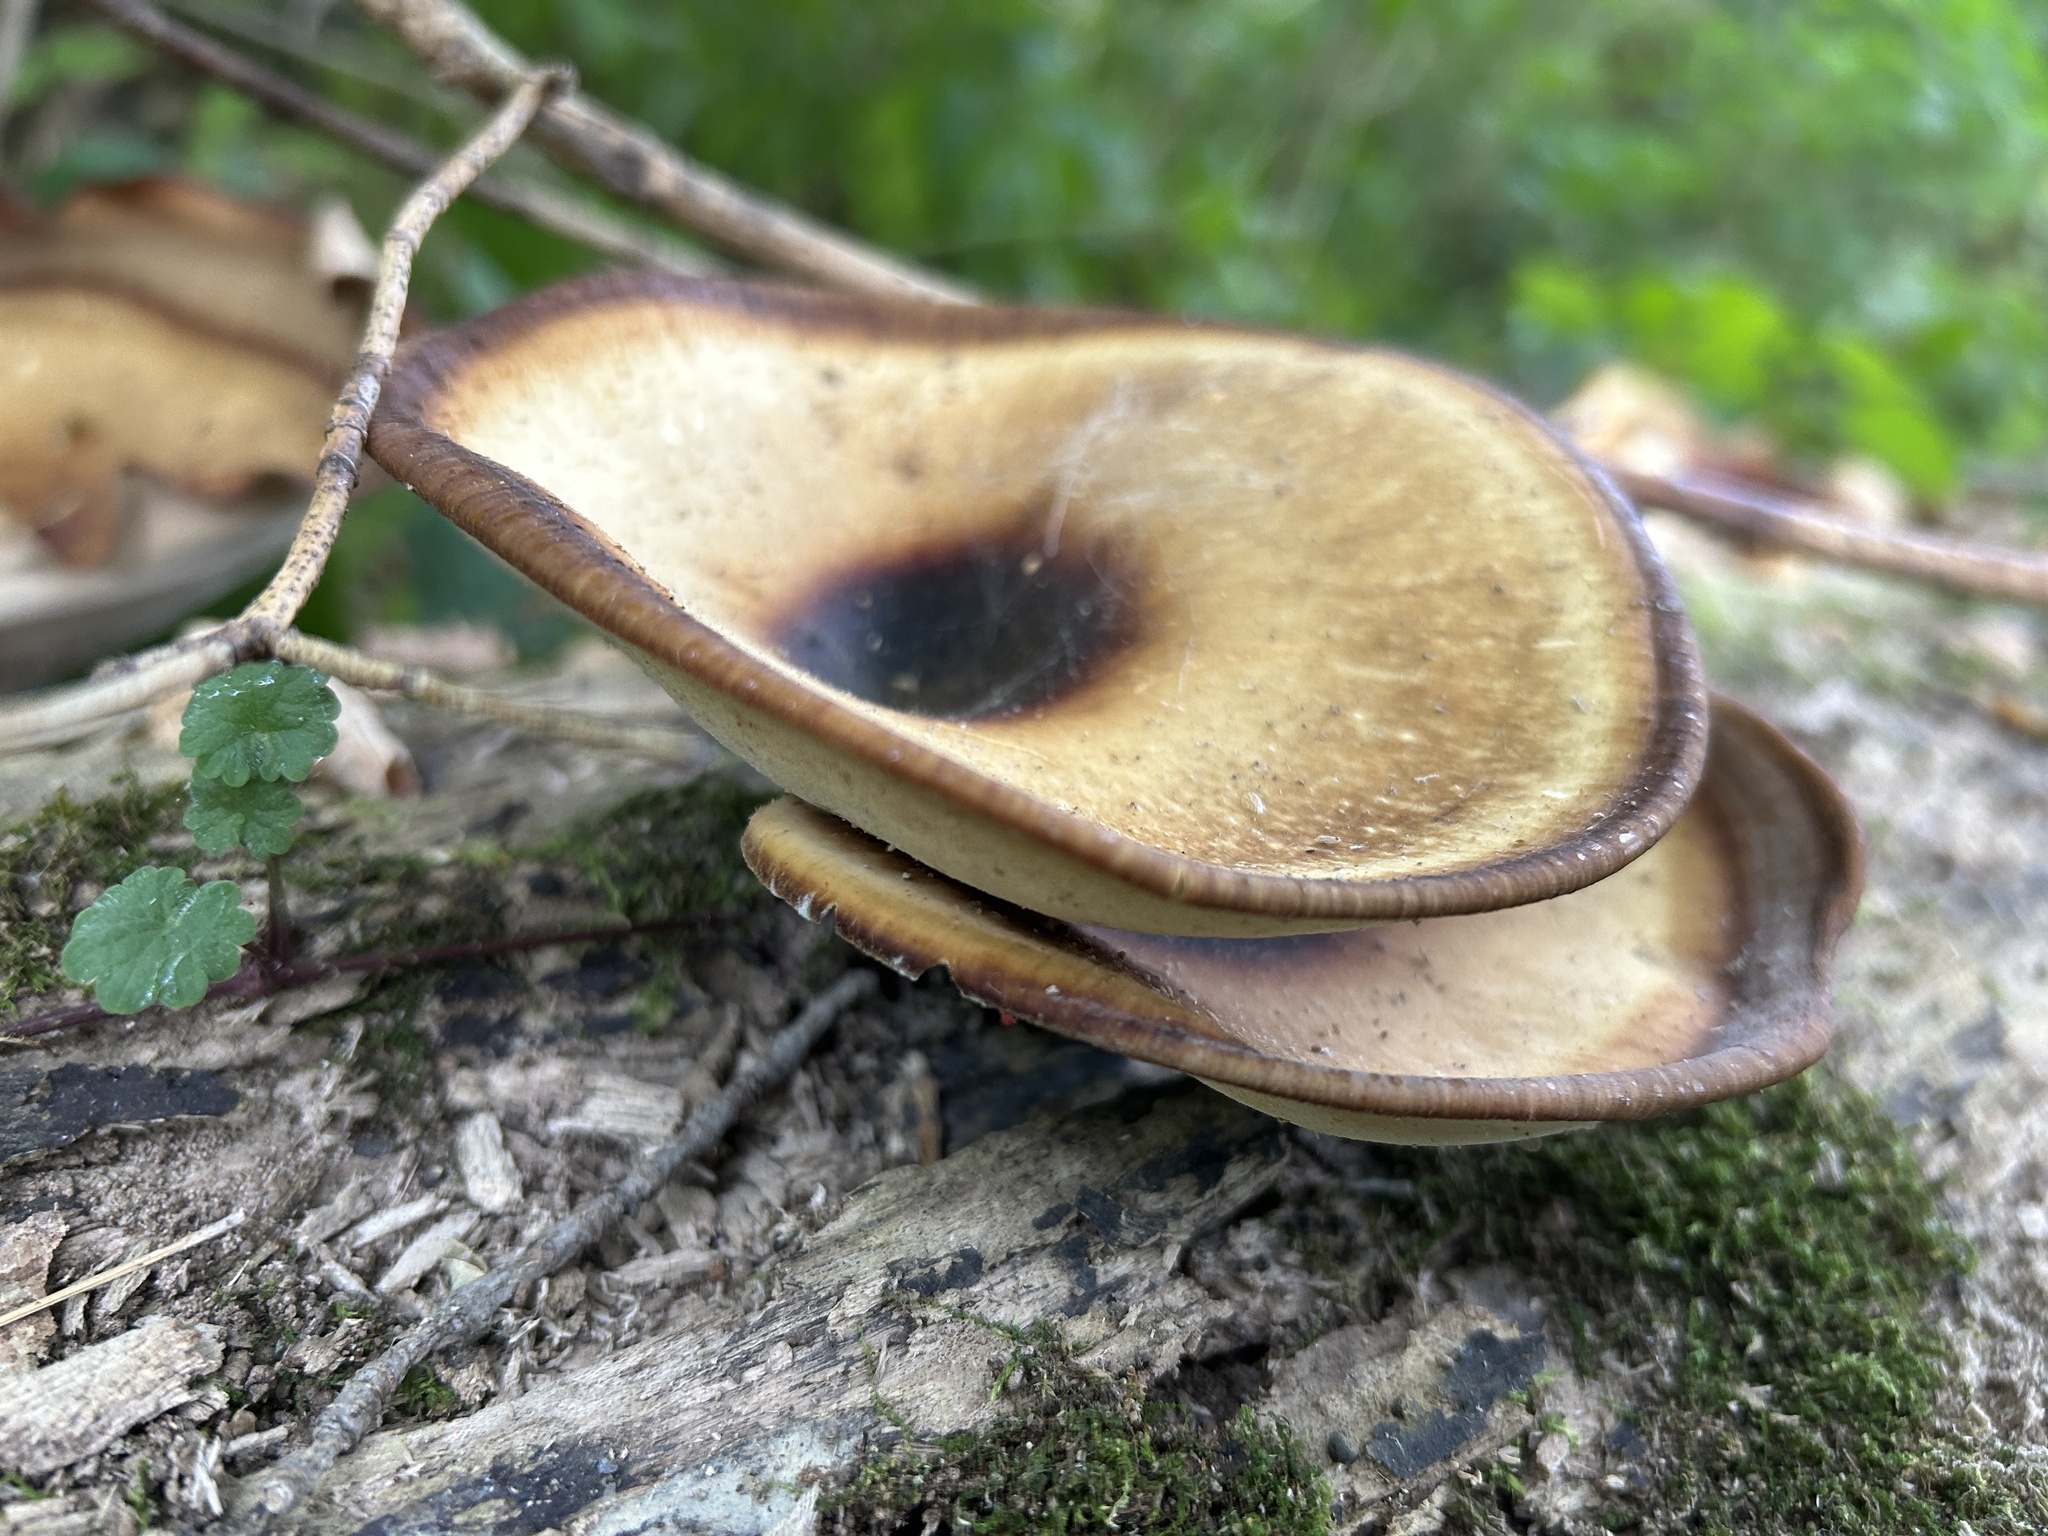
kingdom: Fungi
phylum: Basidiomycota
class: Agaricomycetes
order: Polyporales
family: Polyporaceae
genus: Picipes
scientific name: Picipes badius
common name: Bay polypore
